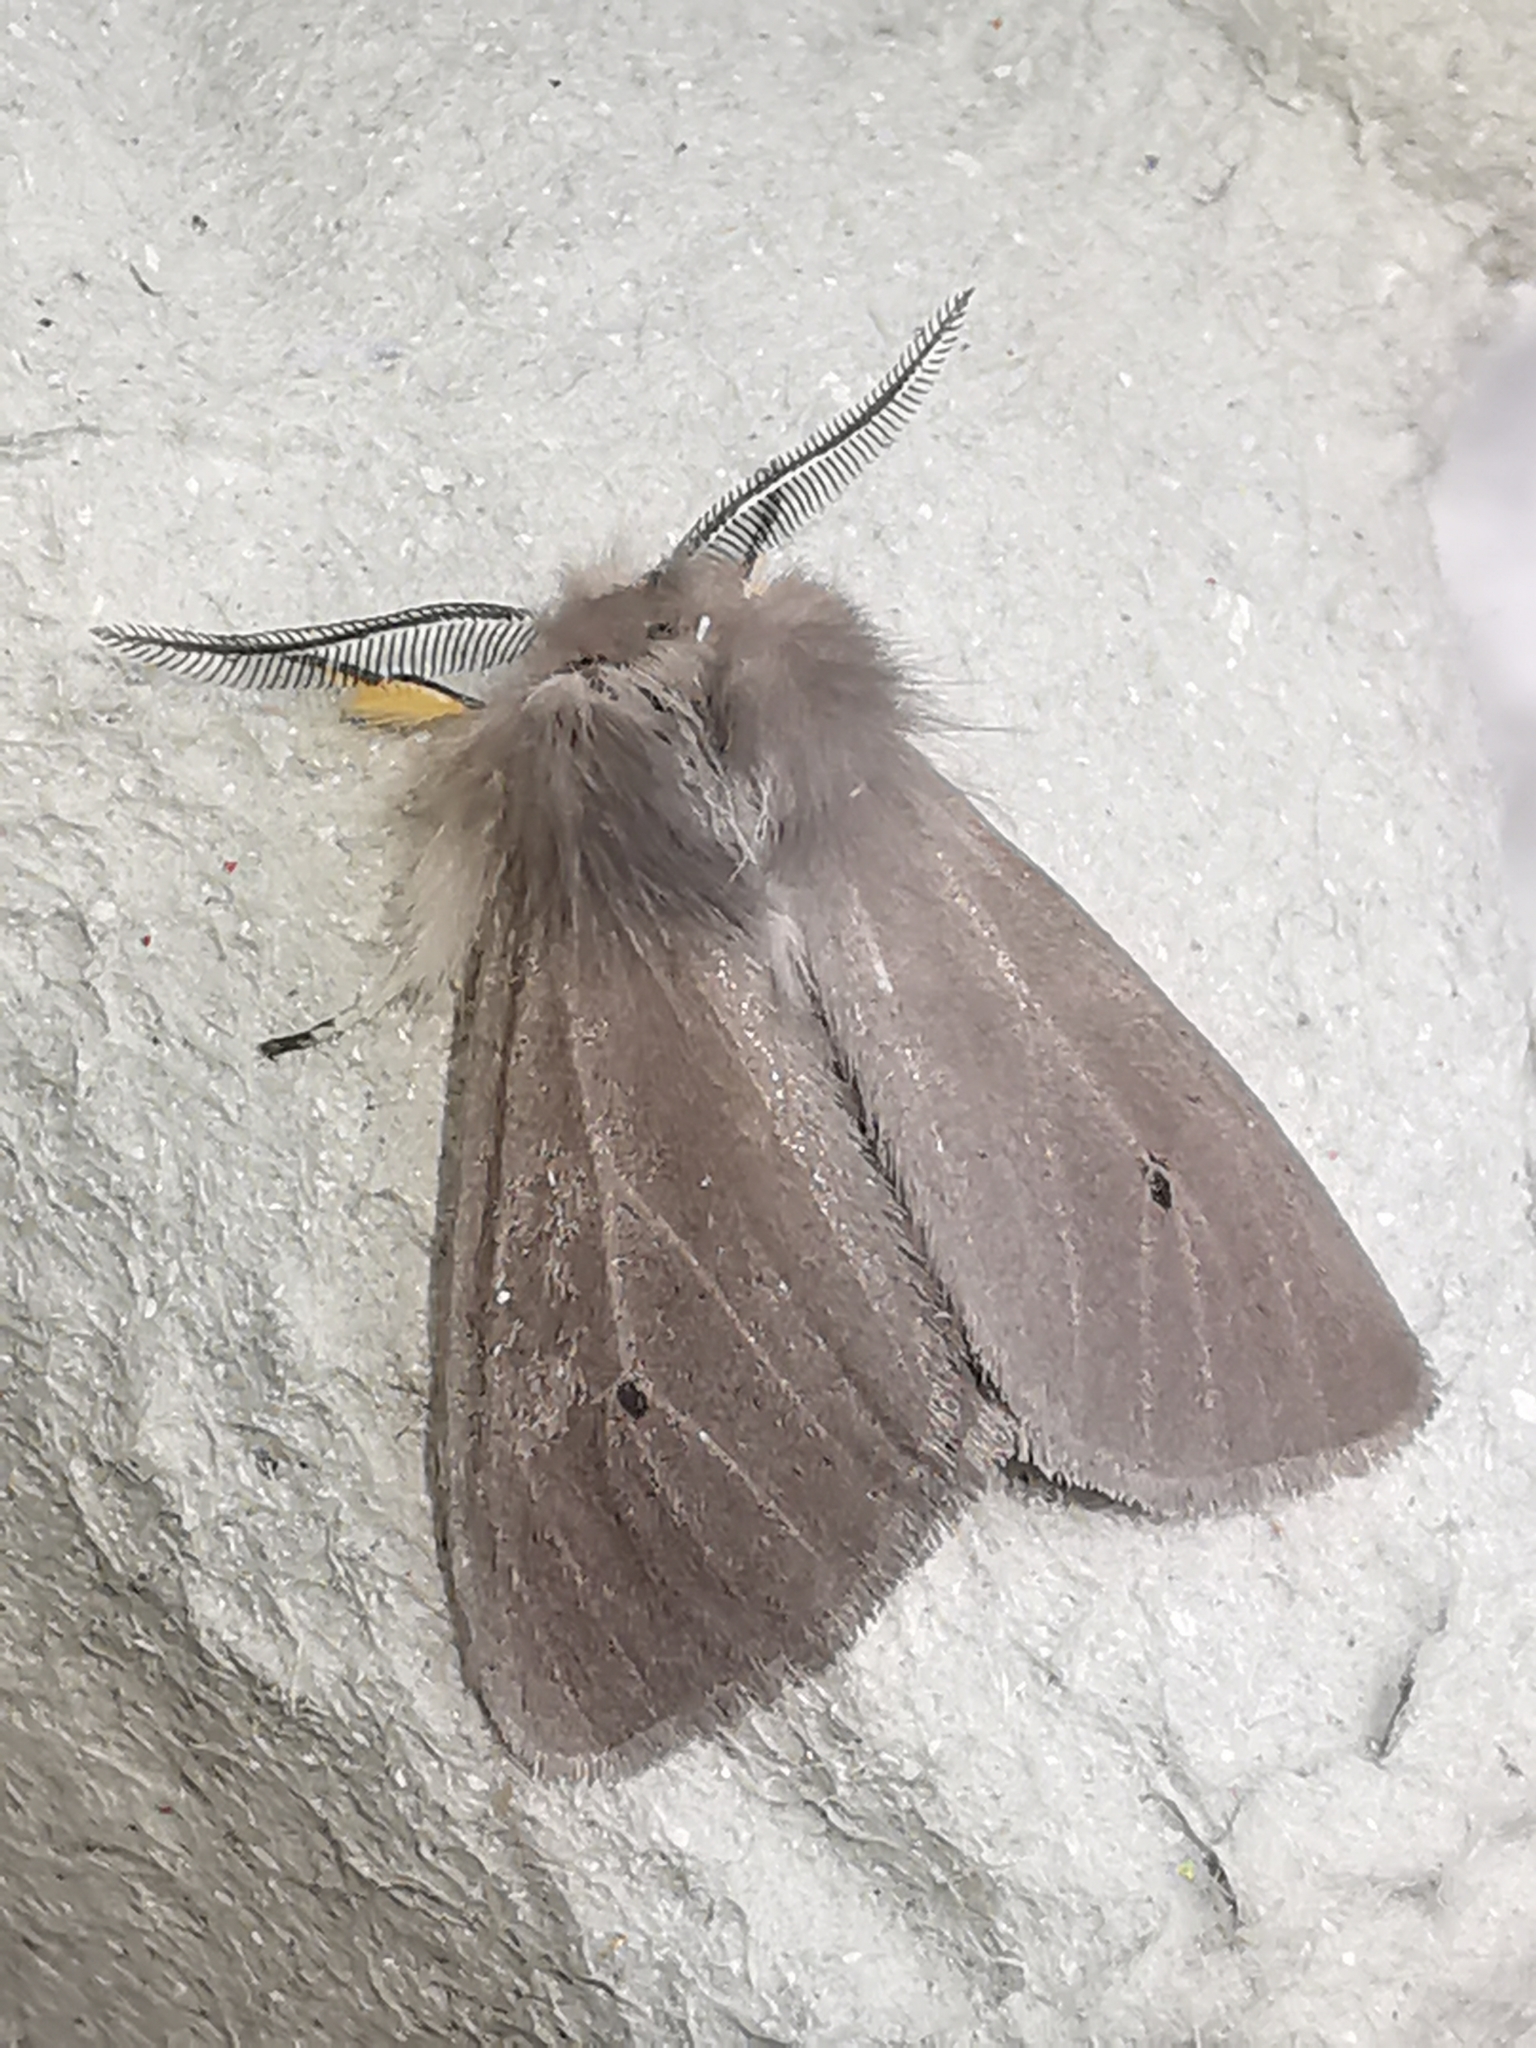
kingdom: Animalia
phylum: Arthropoda
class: Insecta
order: Lepidoptera
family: Erebidae
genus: Diaphora
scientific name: Diaphora mendica
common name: Muslin moth
